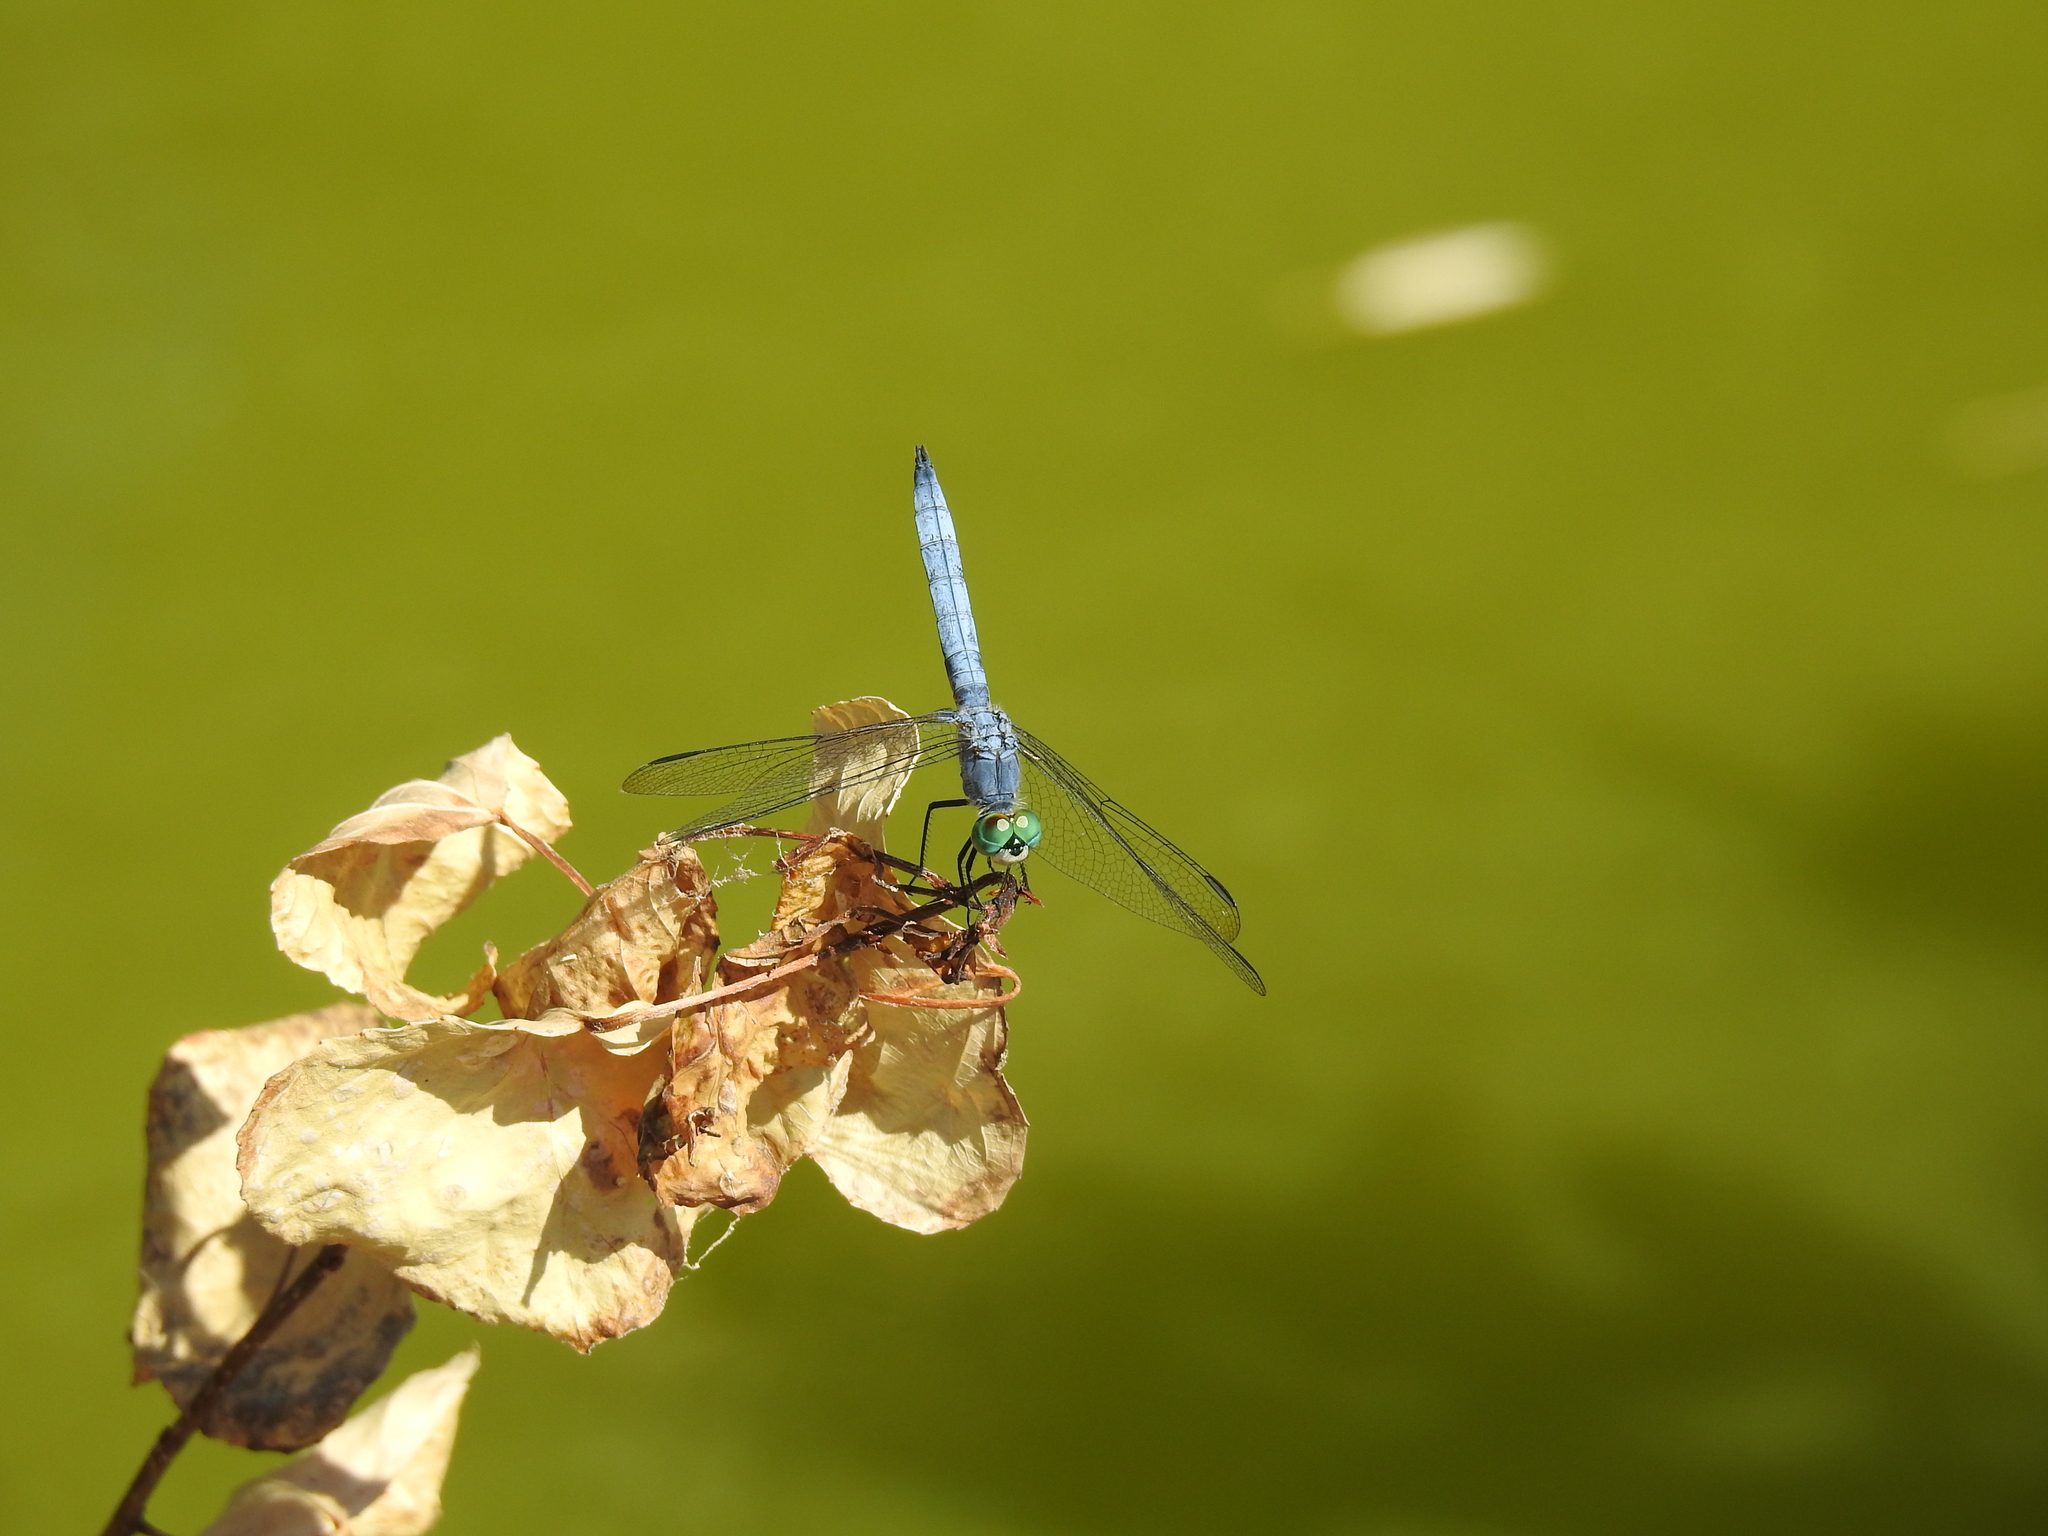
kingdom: Animalia
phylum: Arthropoda
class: Insecta
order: Odonata
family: Libellulidae
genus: Pachydiplax
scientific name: Pachydiplax longipennis
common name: Blue dasher
